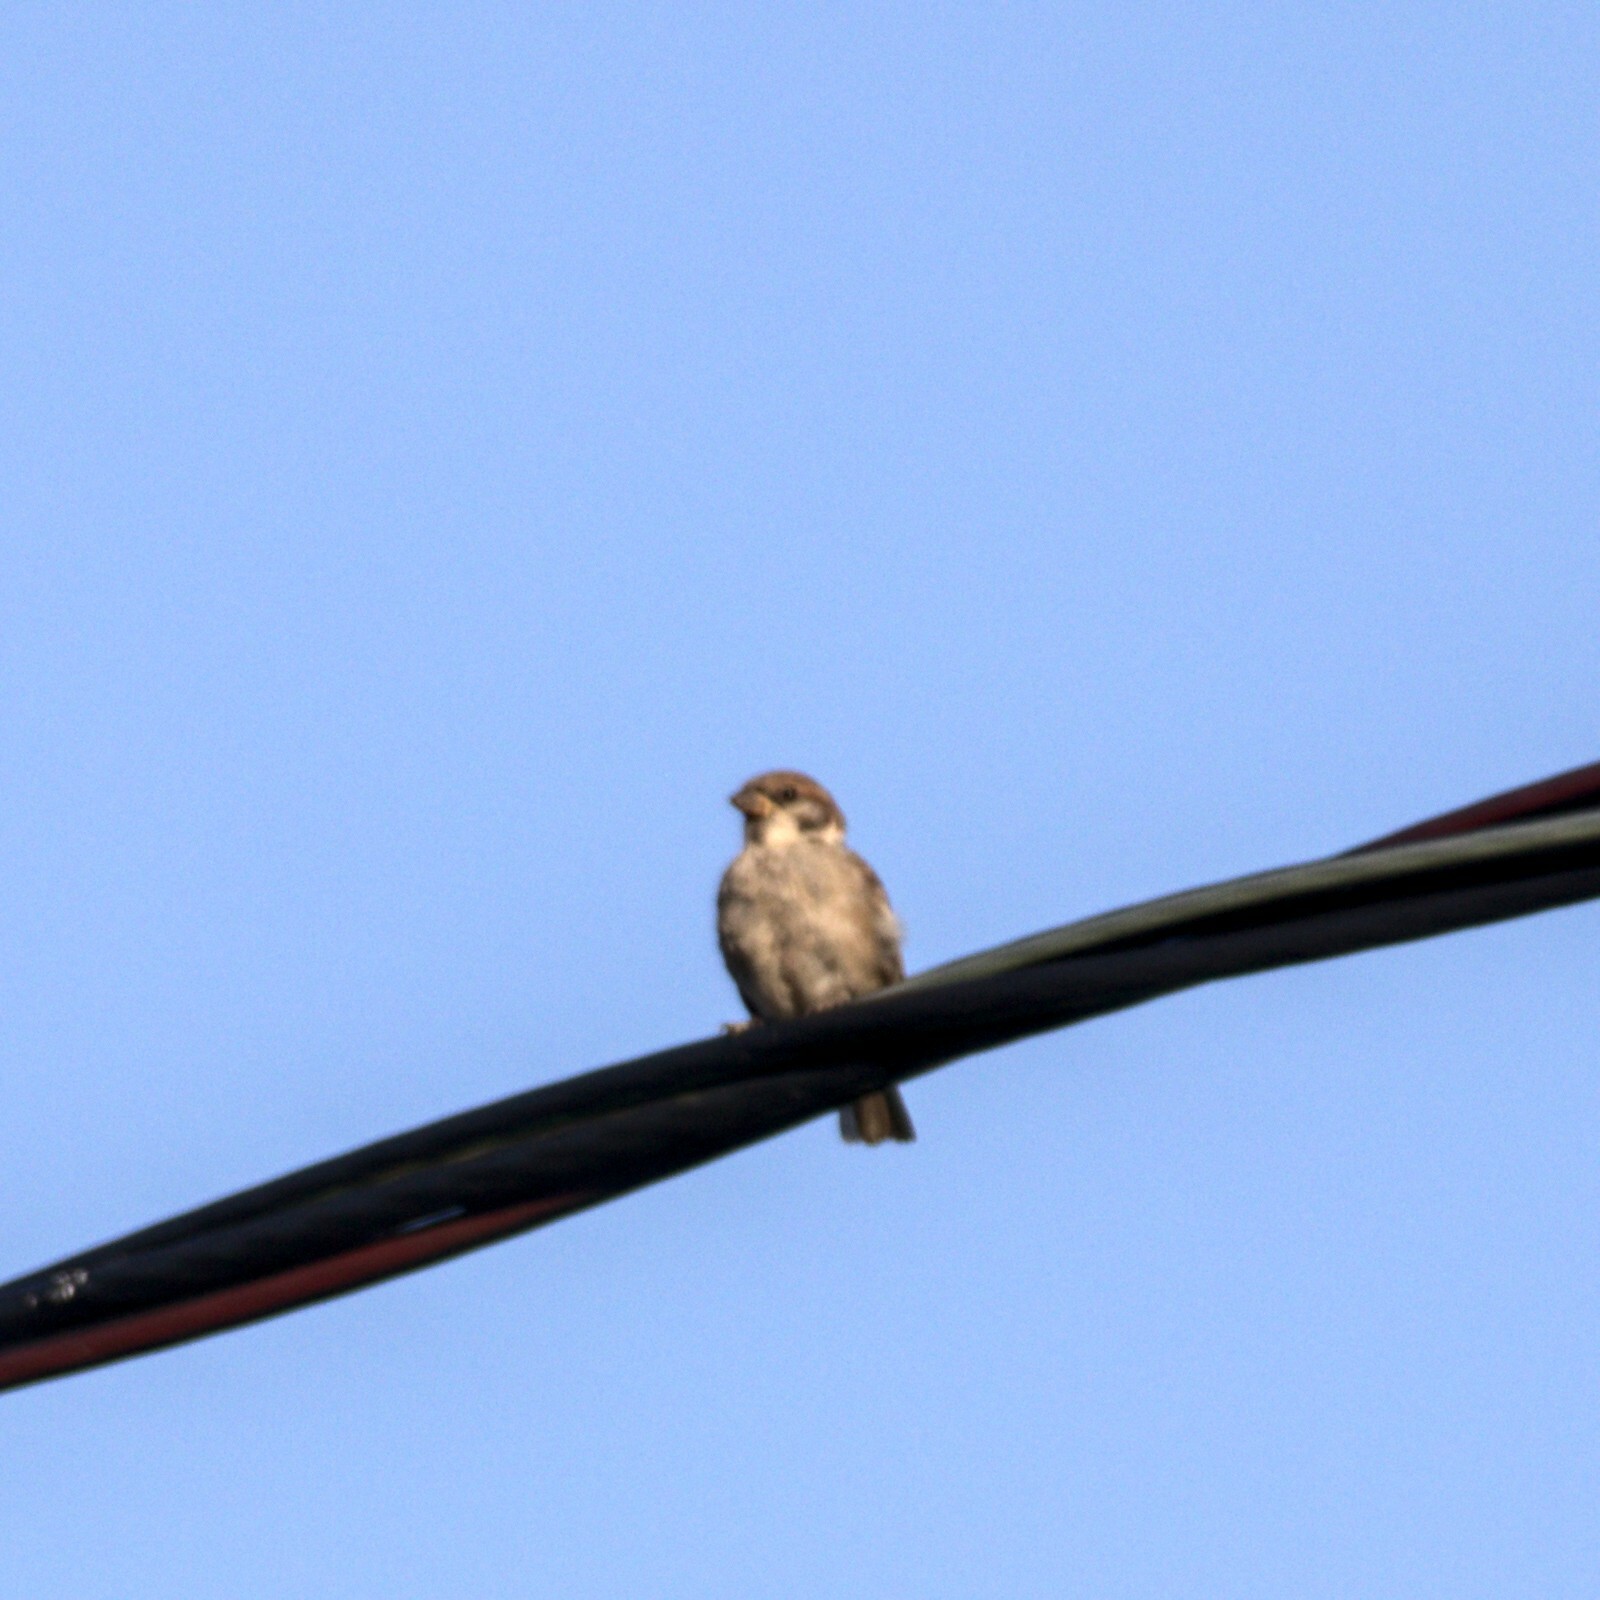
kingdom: Animalia
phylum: Chordata
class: Aves
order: Passeriformes
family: Passeridae
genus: Passer
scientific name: Passer montanus
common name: Eurasian tree sparrow
